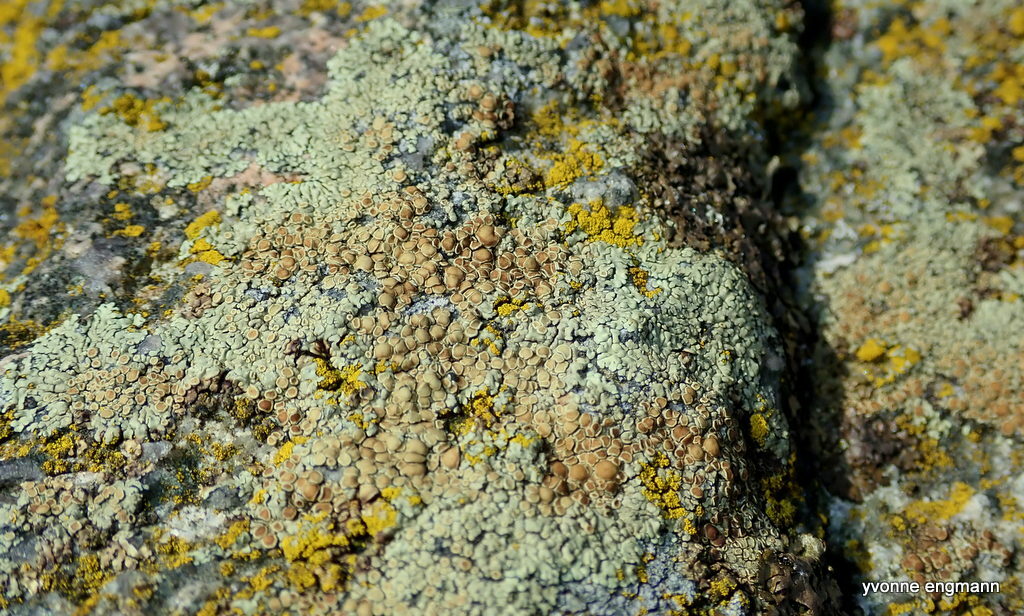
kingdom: Fungi
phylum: Ascomycota
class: Lecanoromycetes
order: Lecanorales
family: Lecanoraceae
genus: Protoparmeliopsis
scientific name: Protoparmeliopsis muralis
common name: Stonewall rim lichen
